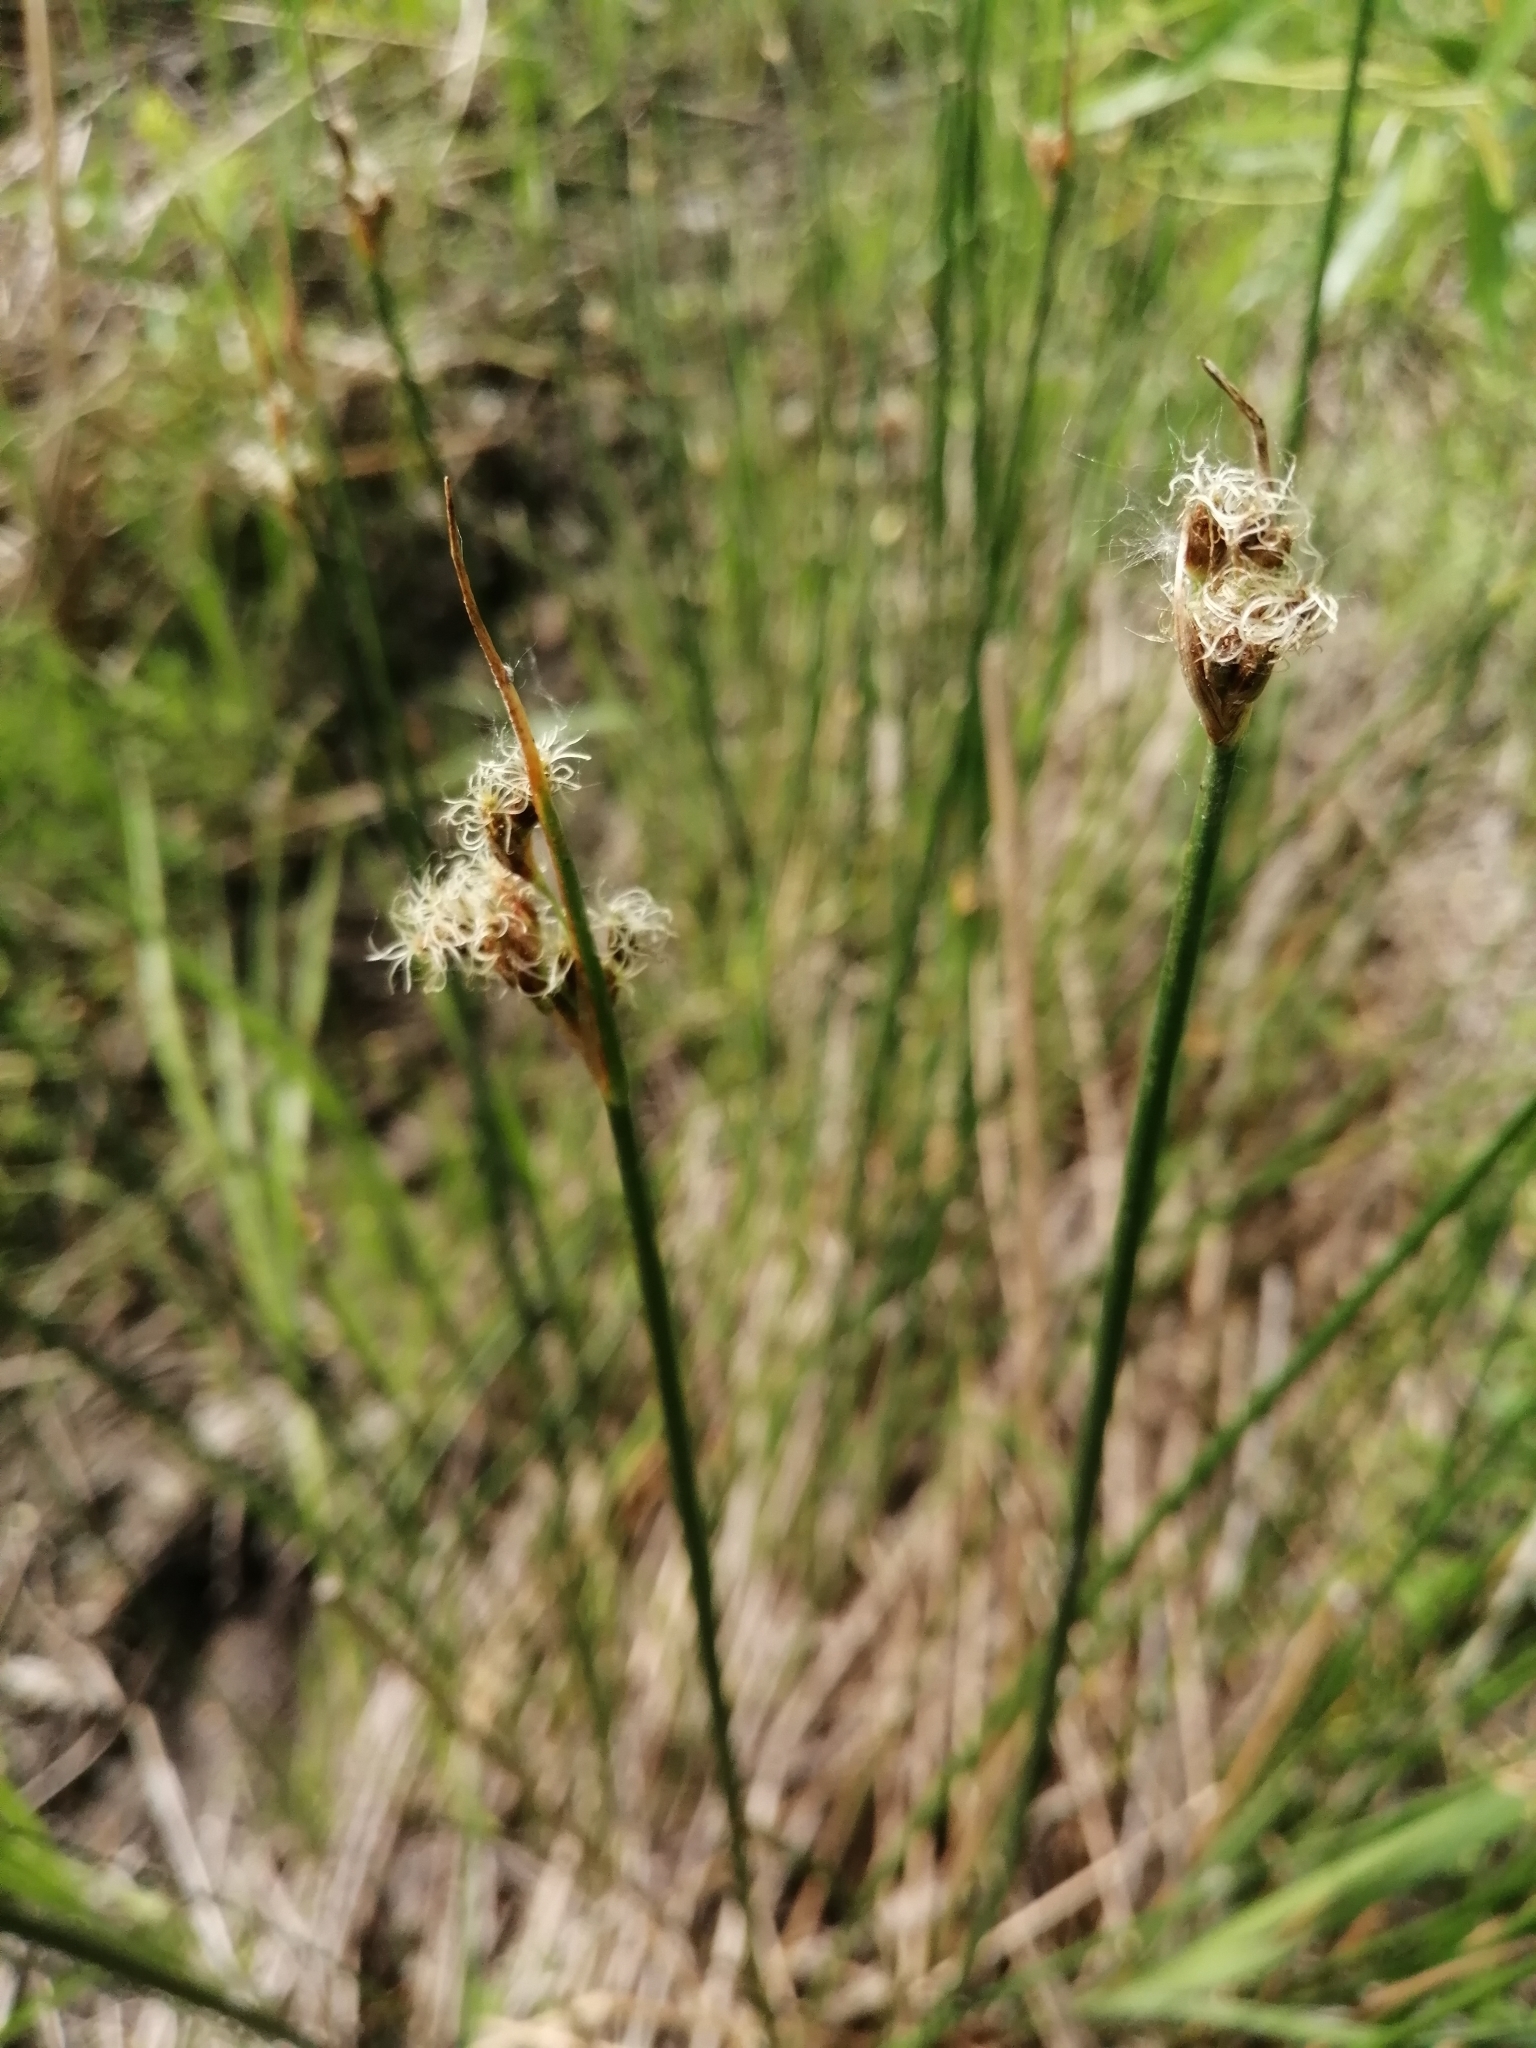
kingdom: Plantae
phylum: Tracheophyta
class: Liliopsida
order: Poales
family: Cyperaceae
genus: Schoenoplectus
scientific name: Schoenoplectus tabernaemontani
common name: Grey club-rush
